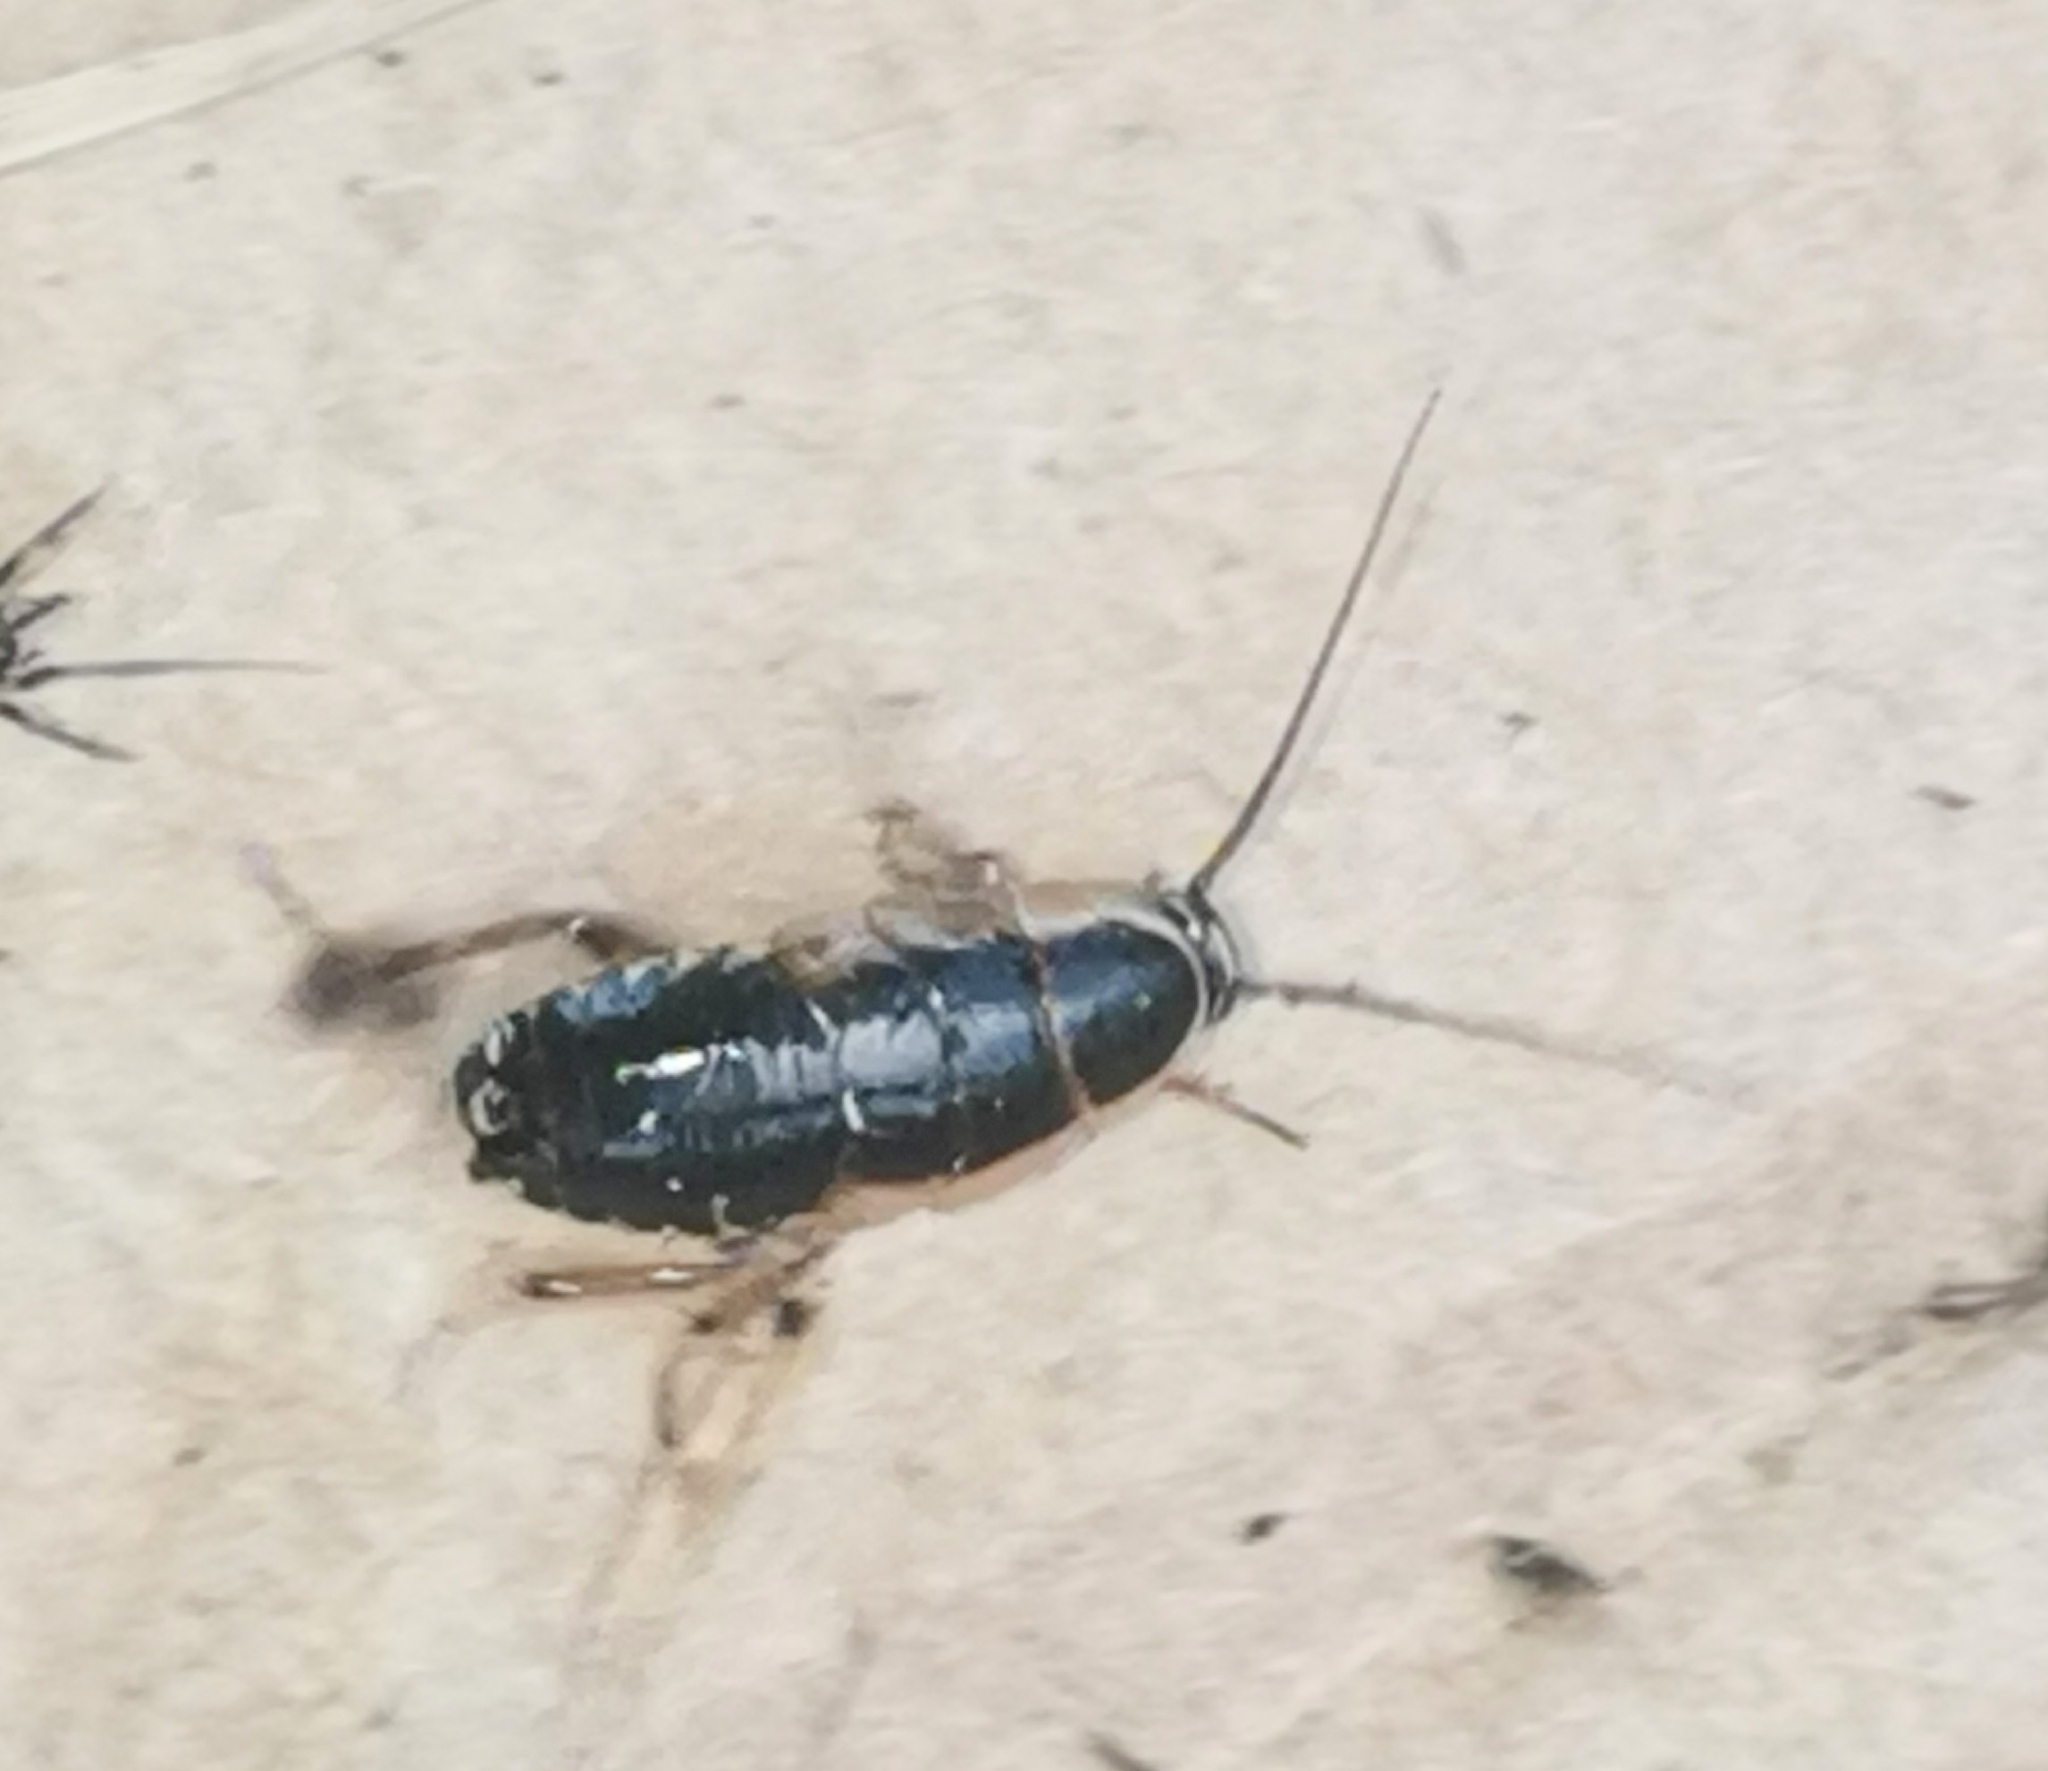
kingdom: Animalia
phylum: Arthropoda
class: Insecta
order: Blattodea
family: Ectobiidae
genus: Ectobius
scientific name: Ectobius sylvestris
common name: Forest cockroach
